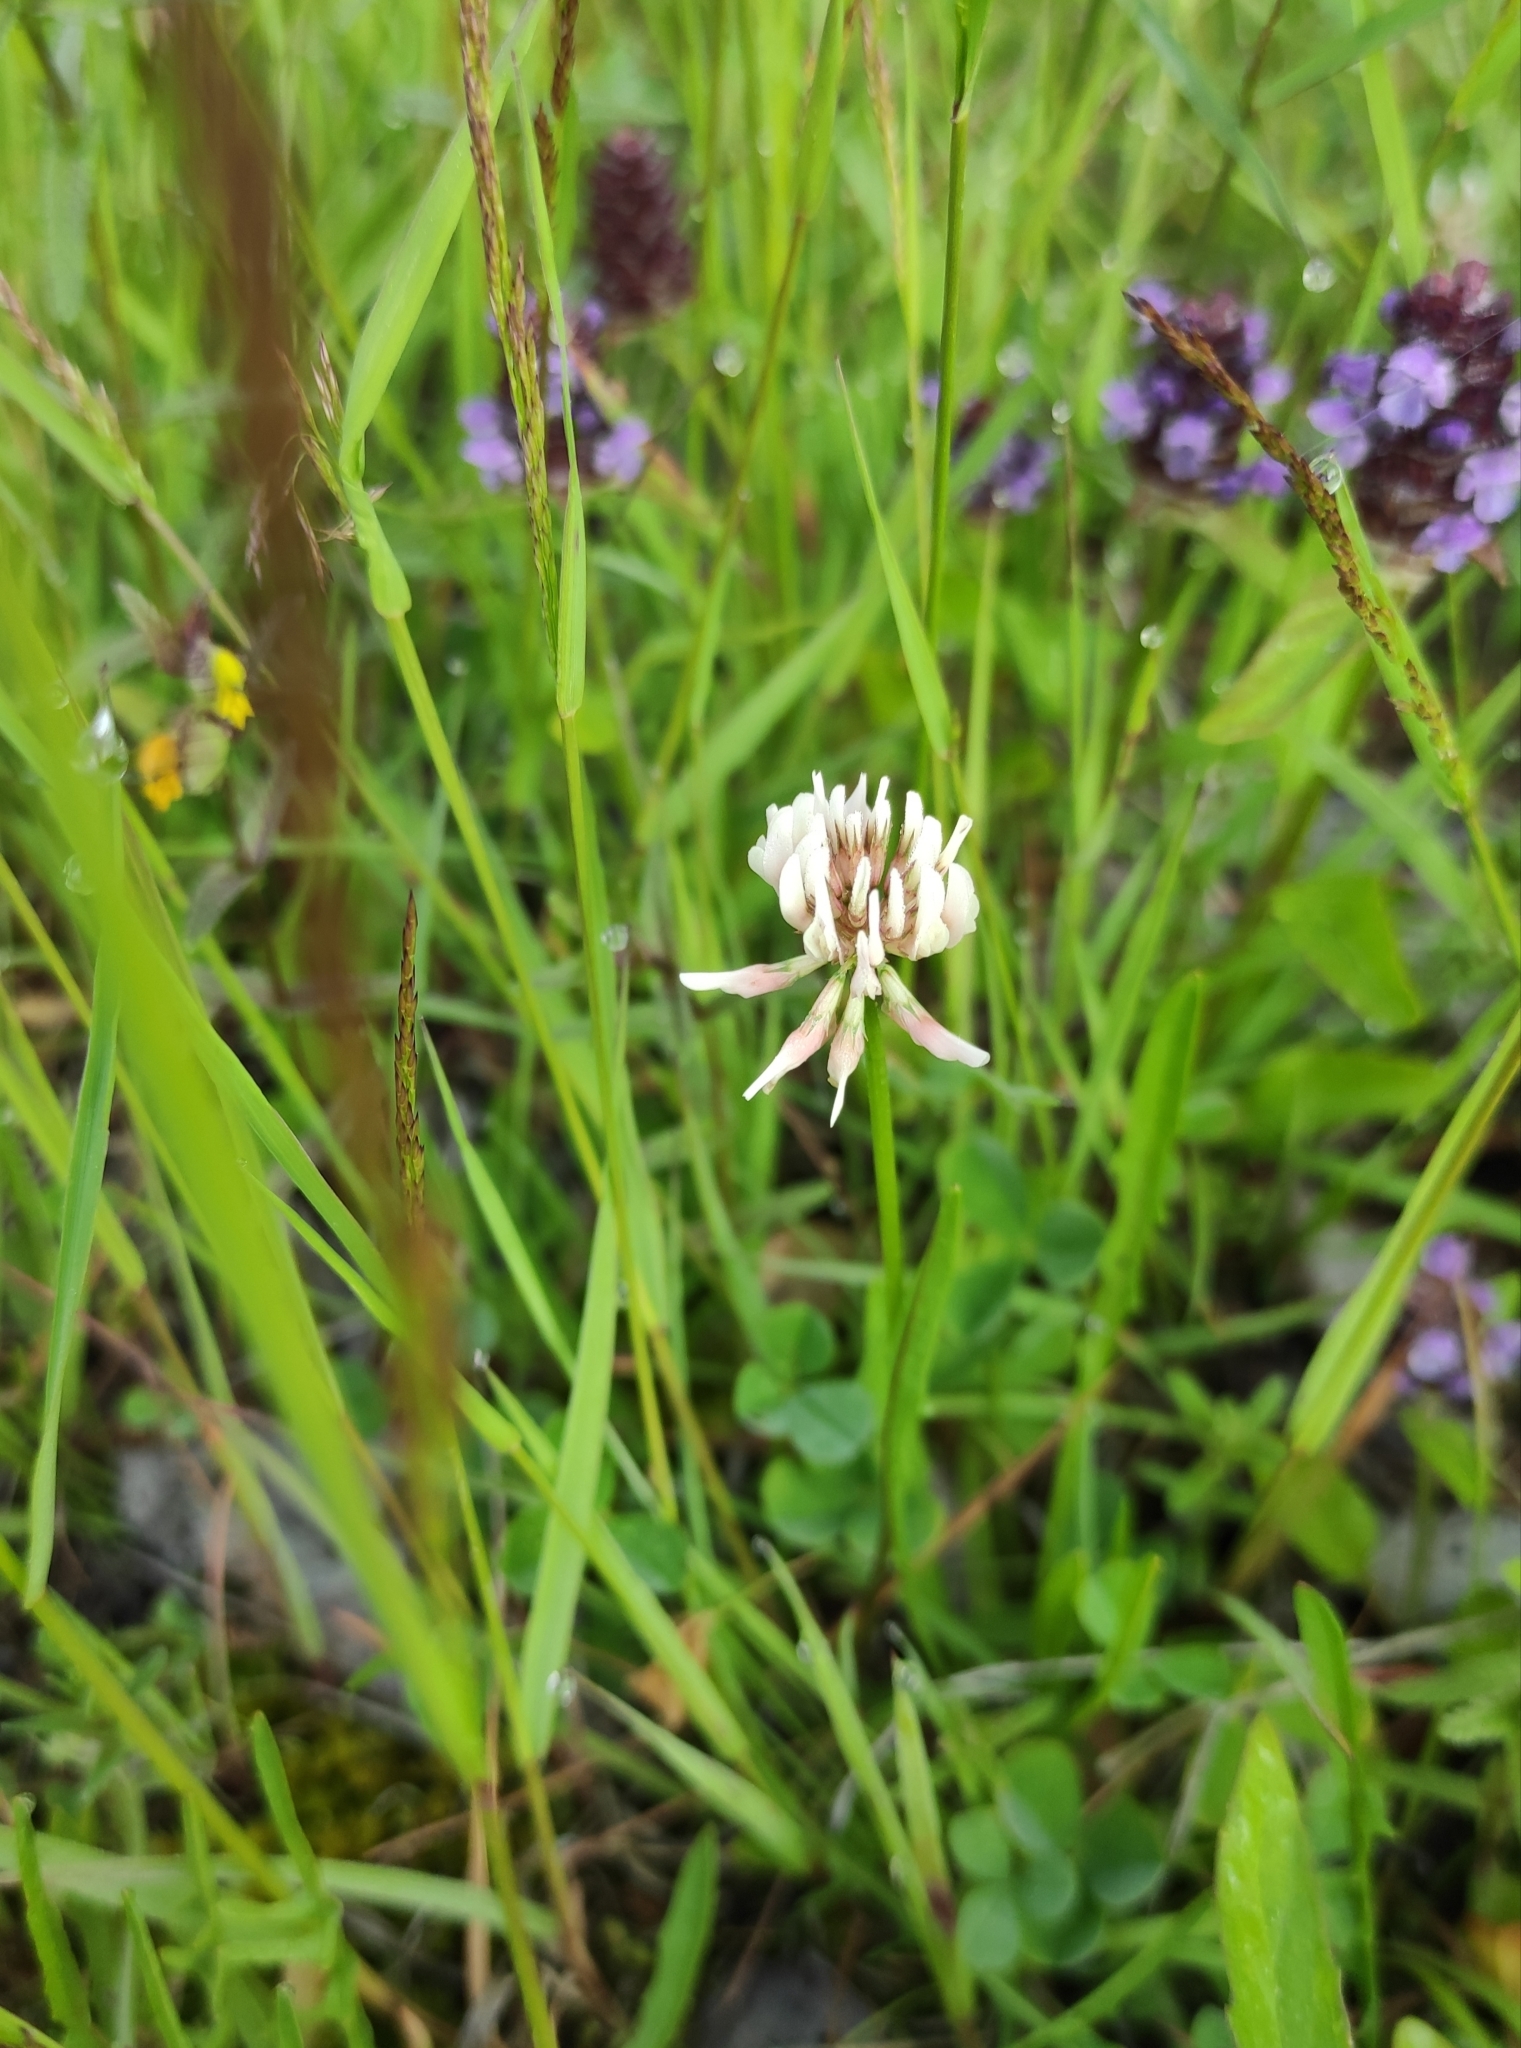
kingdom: Plantae
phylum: Tracheophyta
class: Magnoliopsida
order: Fabales
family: Fabaceae
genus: Trifolium
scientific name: Trifolium repens
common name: White clover
